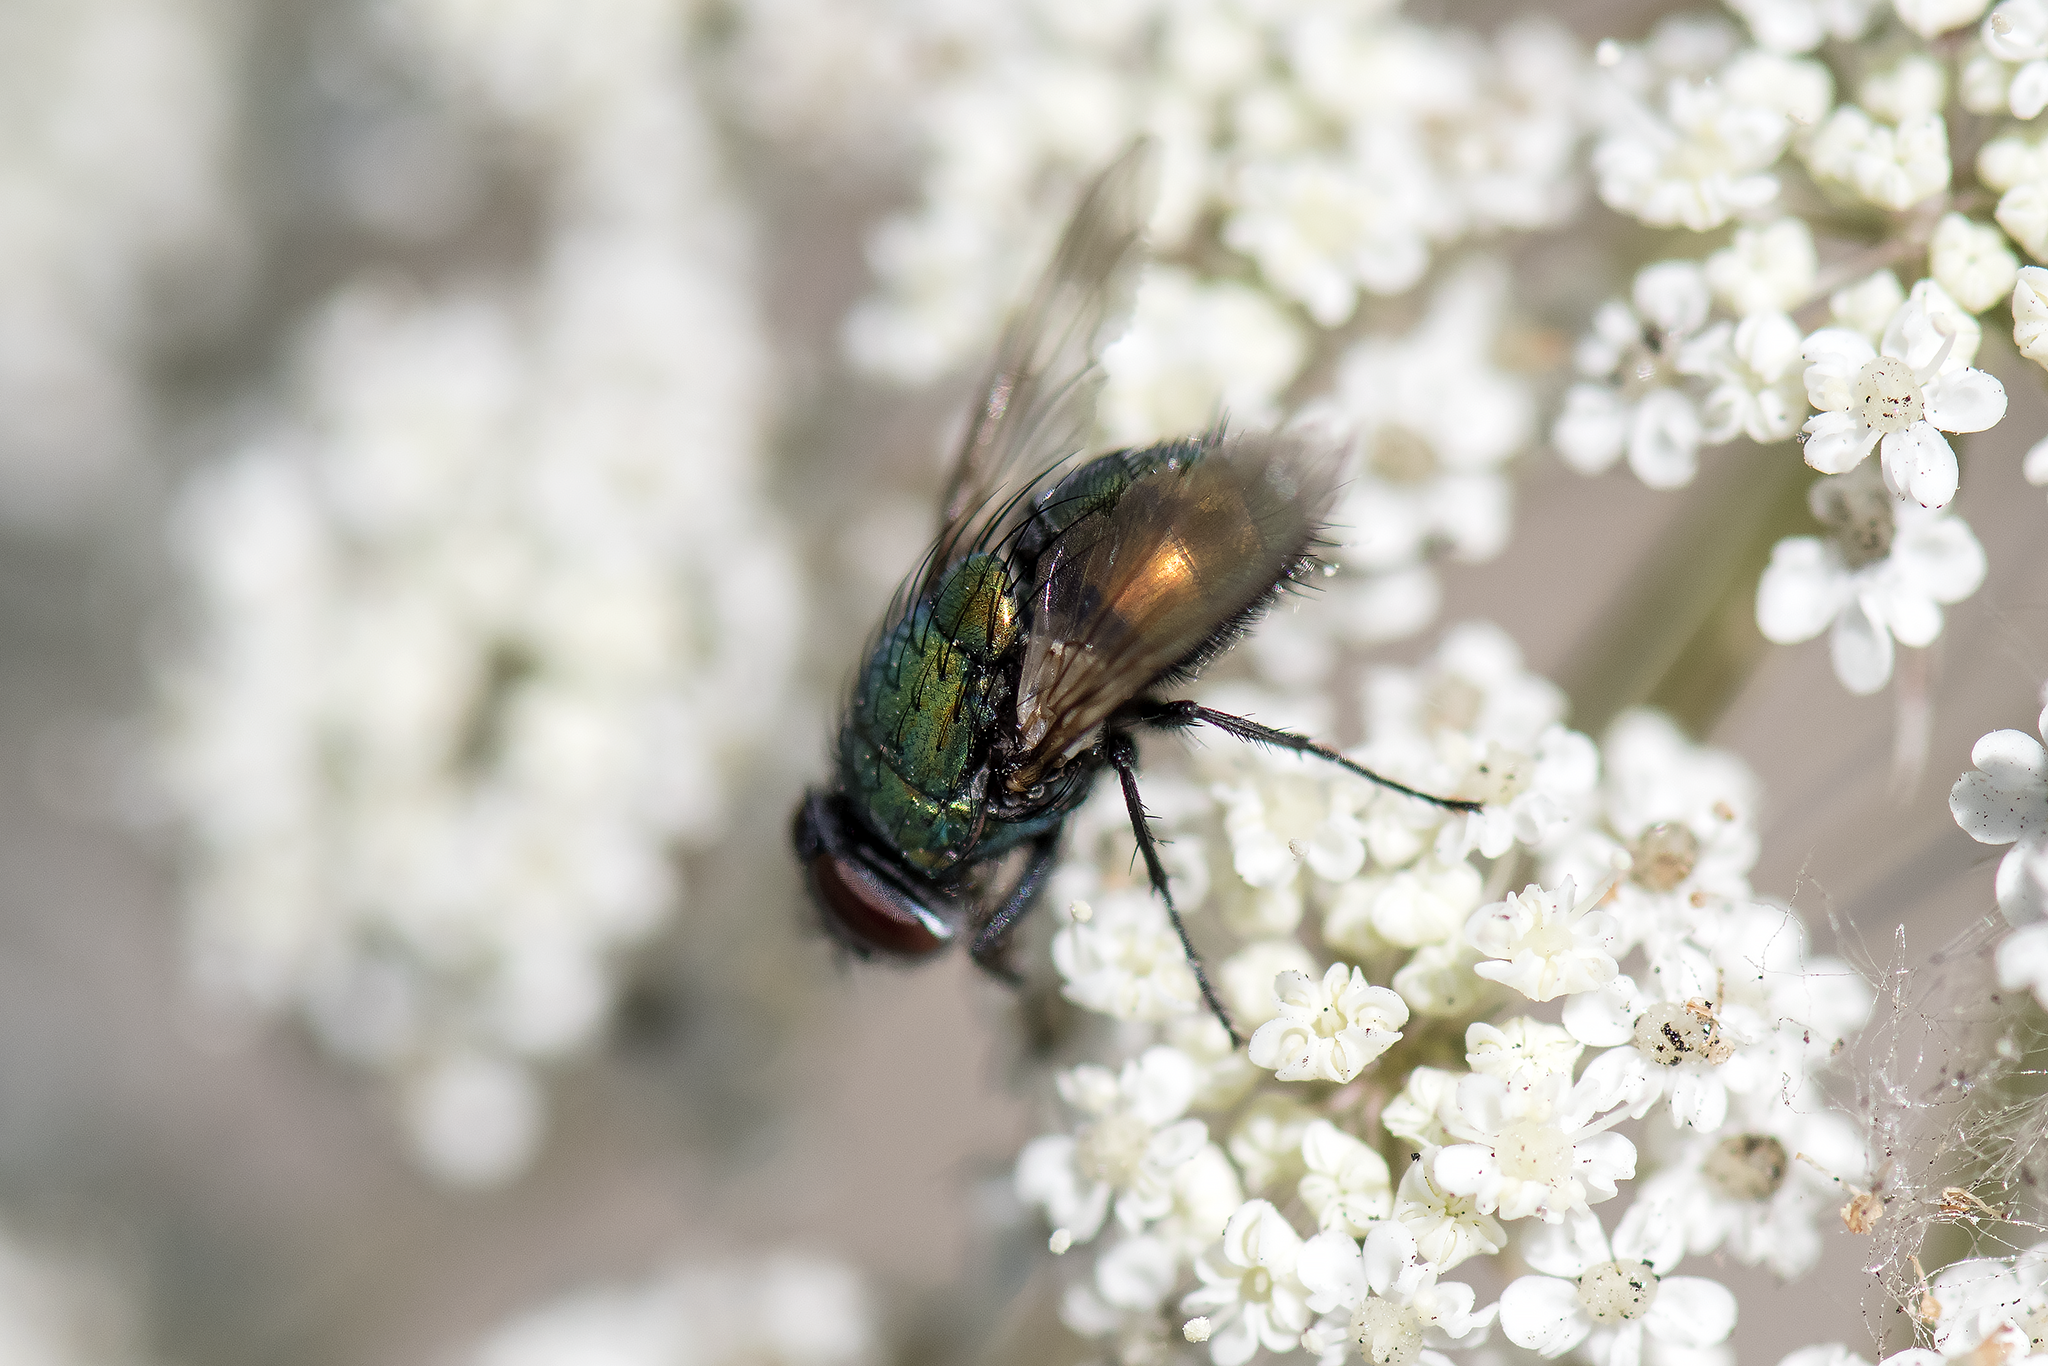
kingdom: Animalia
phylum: Arthropoda
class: Insecta
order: Diptera
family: Calliphoridae
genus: Lucilia
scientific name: Lucilia sericata
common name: Blow fly
